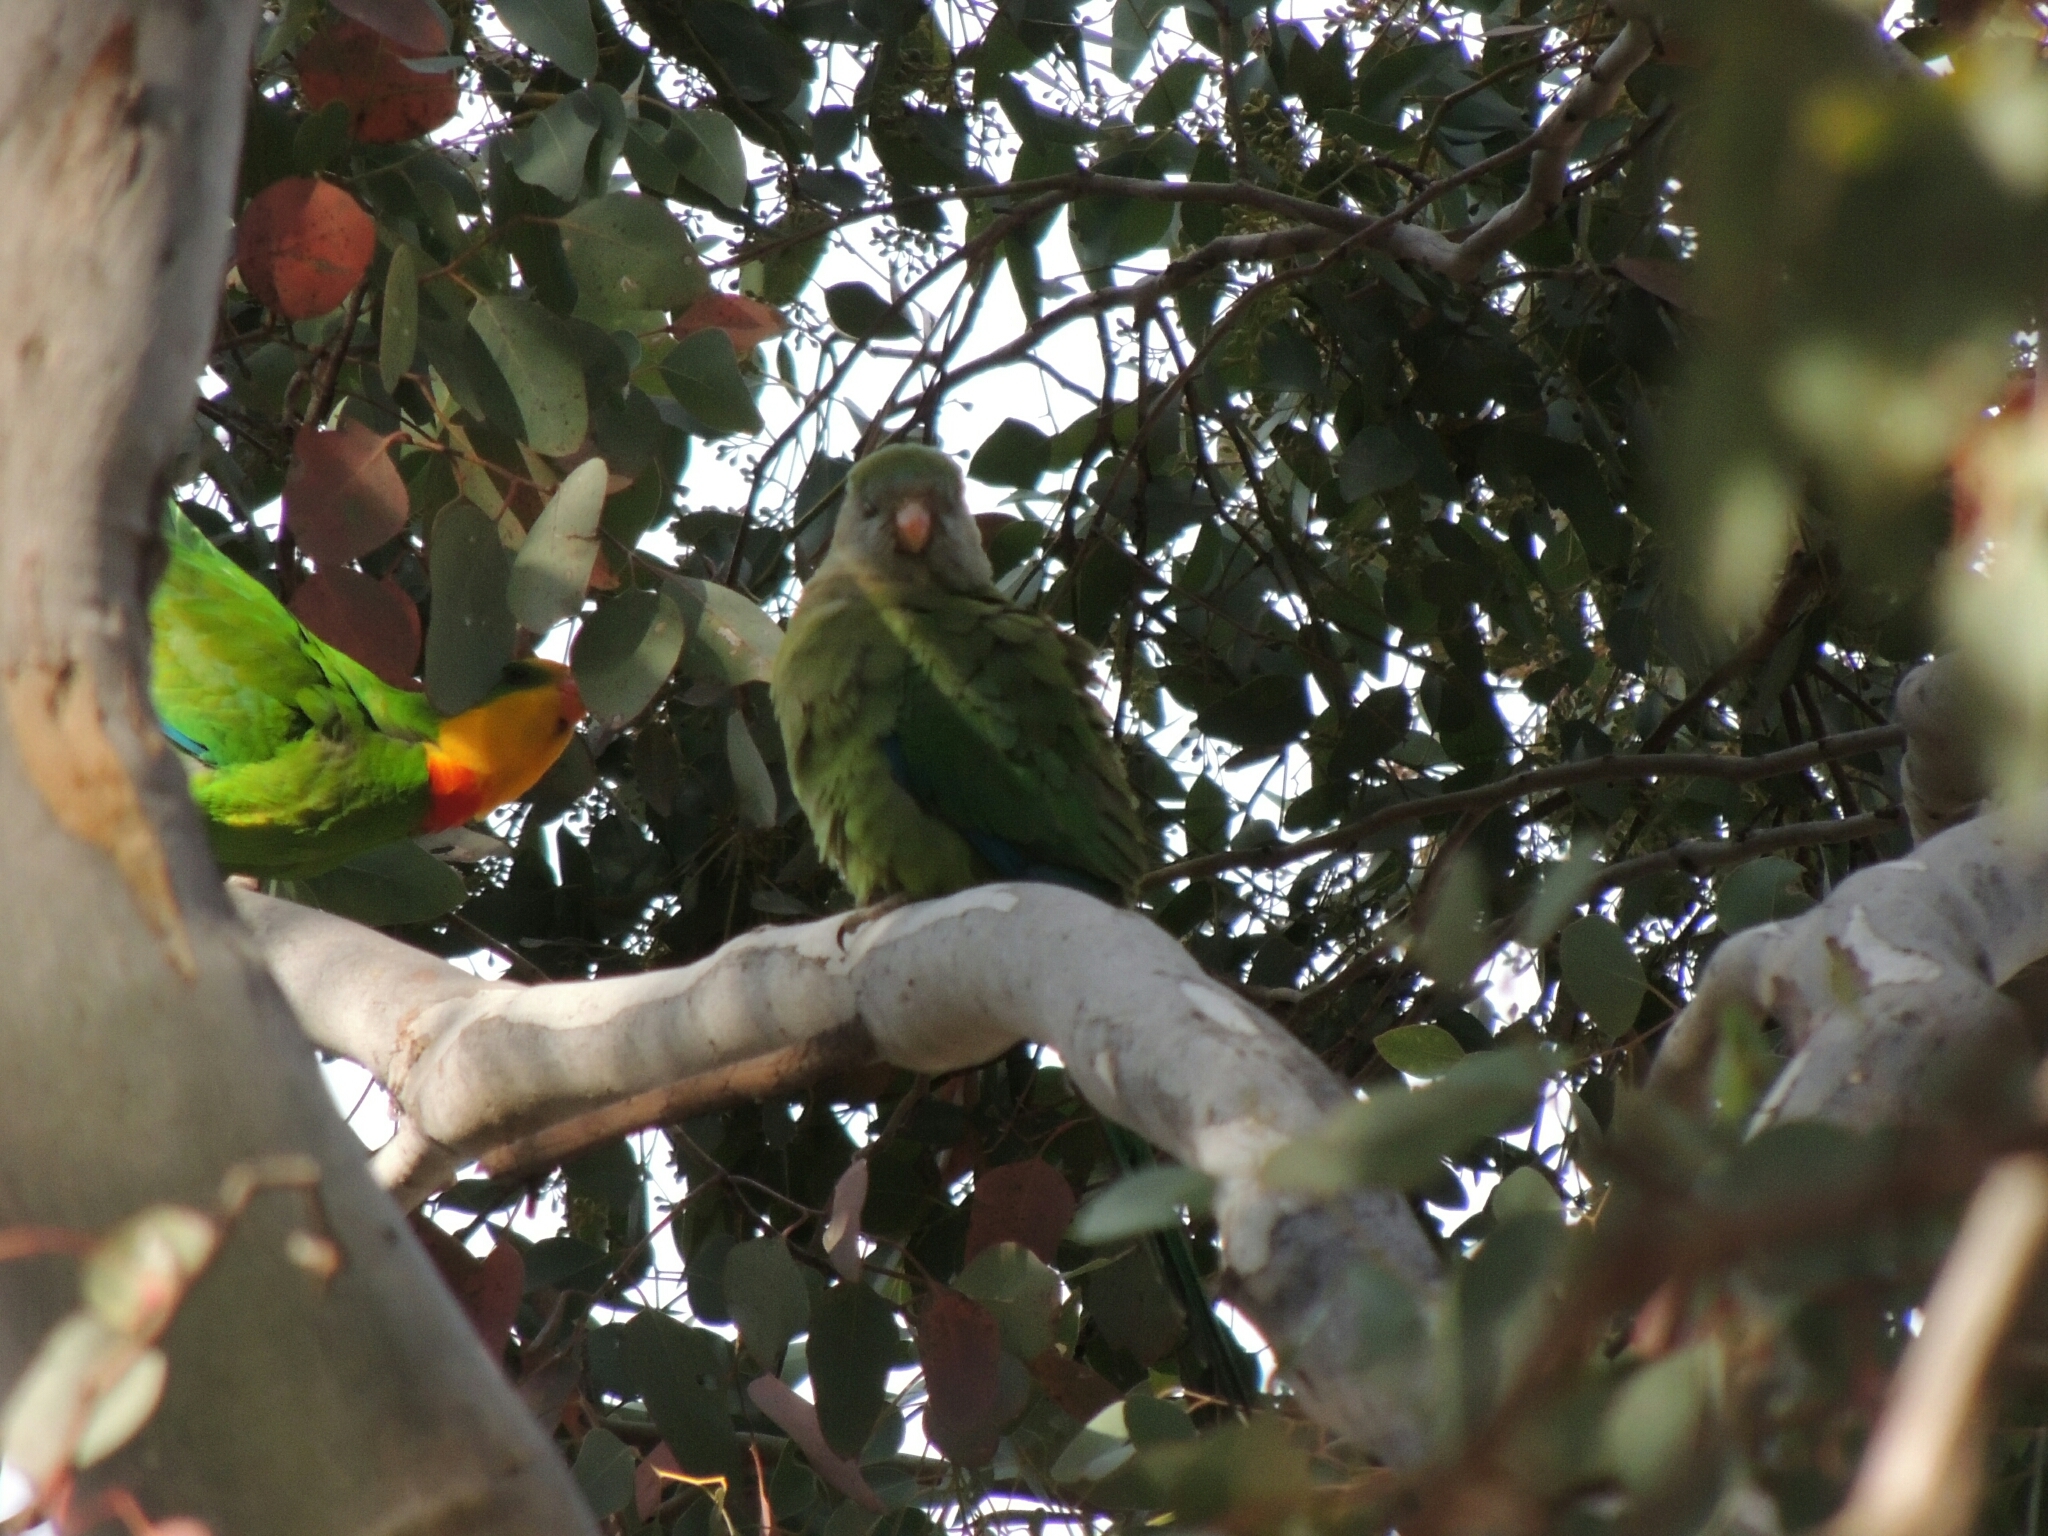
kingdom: Animalia
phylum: Chordata
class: Aves
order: Psittaciformes
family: Psittacidae
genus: Polytelis
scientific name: Polytelis swainsonii
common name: Superb parrot
